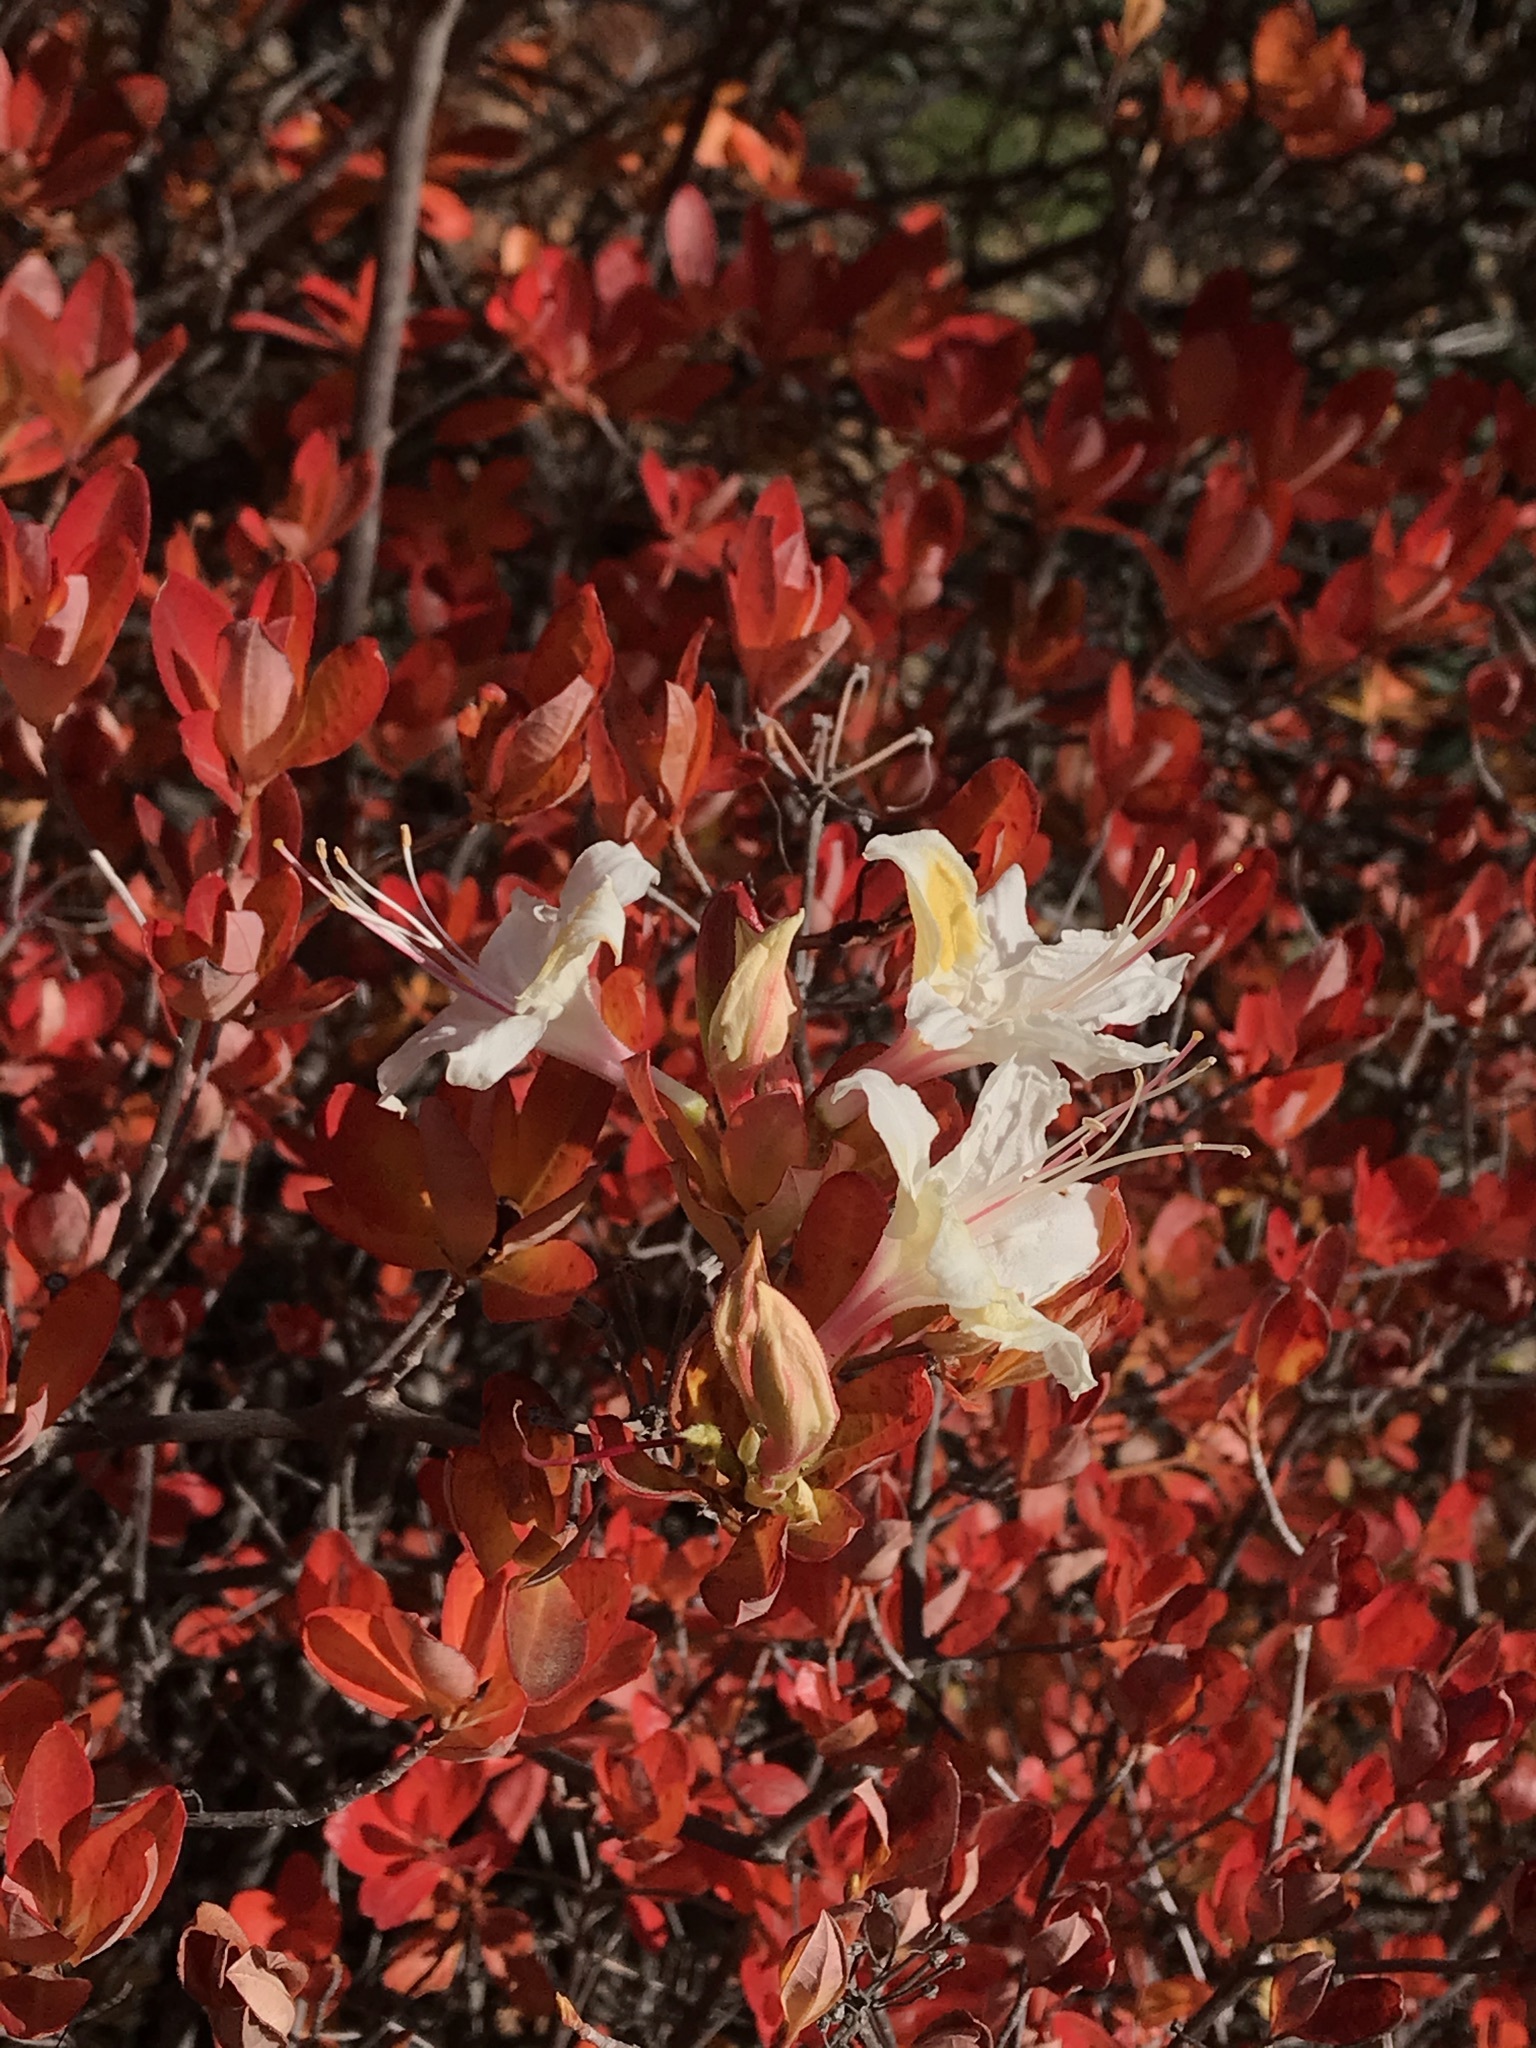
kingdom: Plantae
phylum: Tracheophyta
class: Magnoliopsida
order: Ericales
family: Ericaceae
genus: Rhododendron
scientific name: Rhododendron occidentale
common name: Western azalea
